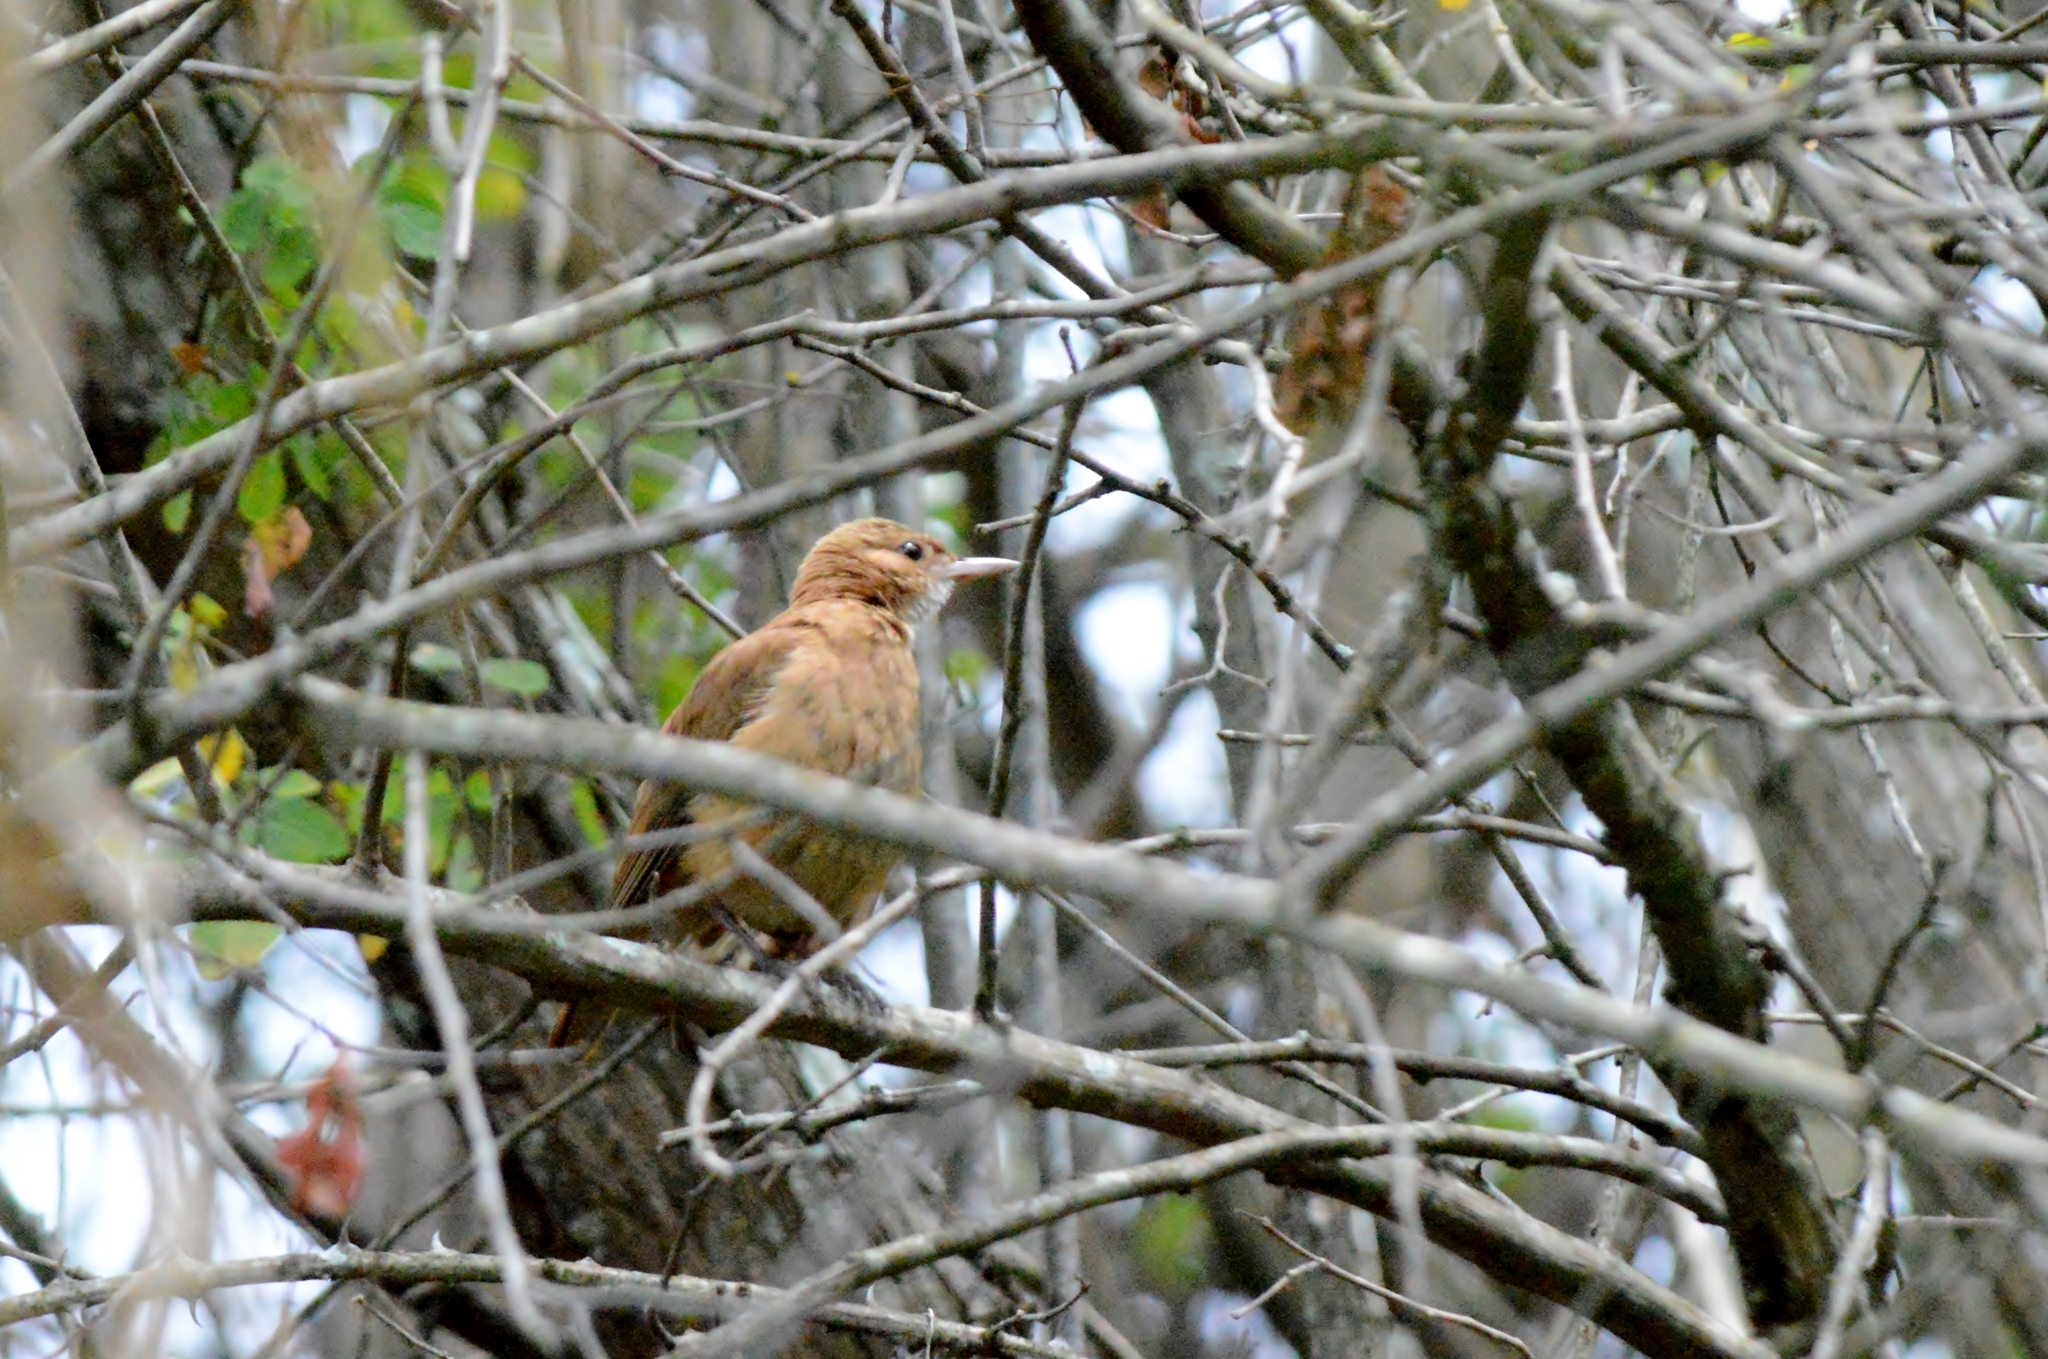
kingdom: Animalia
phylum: Chordata
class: Aves
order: Passeriformes
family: Furnariidae
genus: Furnarius
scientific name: Furnarius rufus
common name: Rufous hornero
